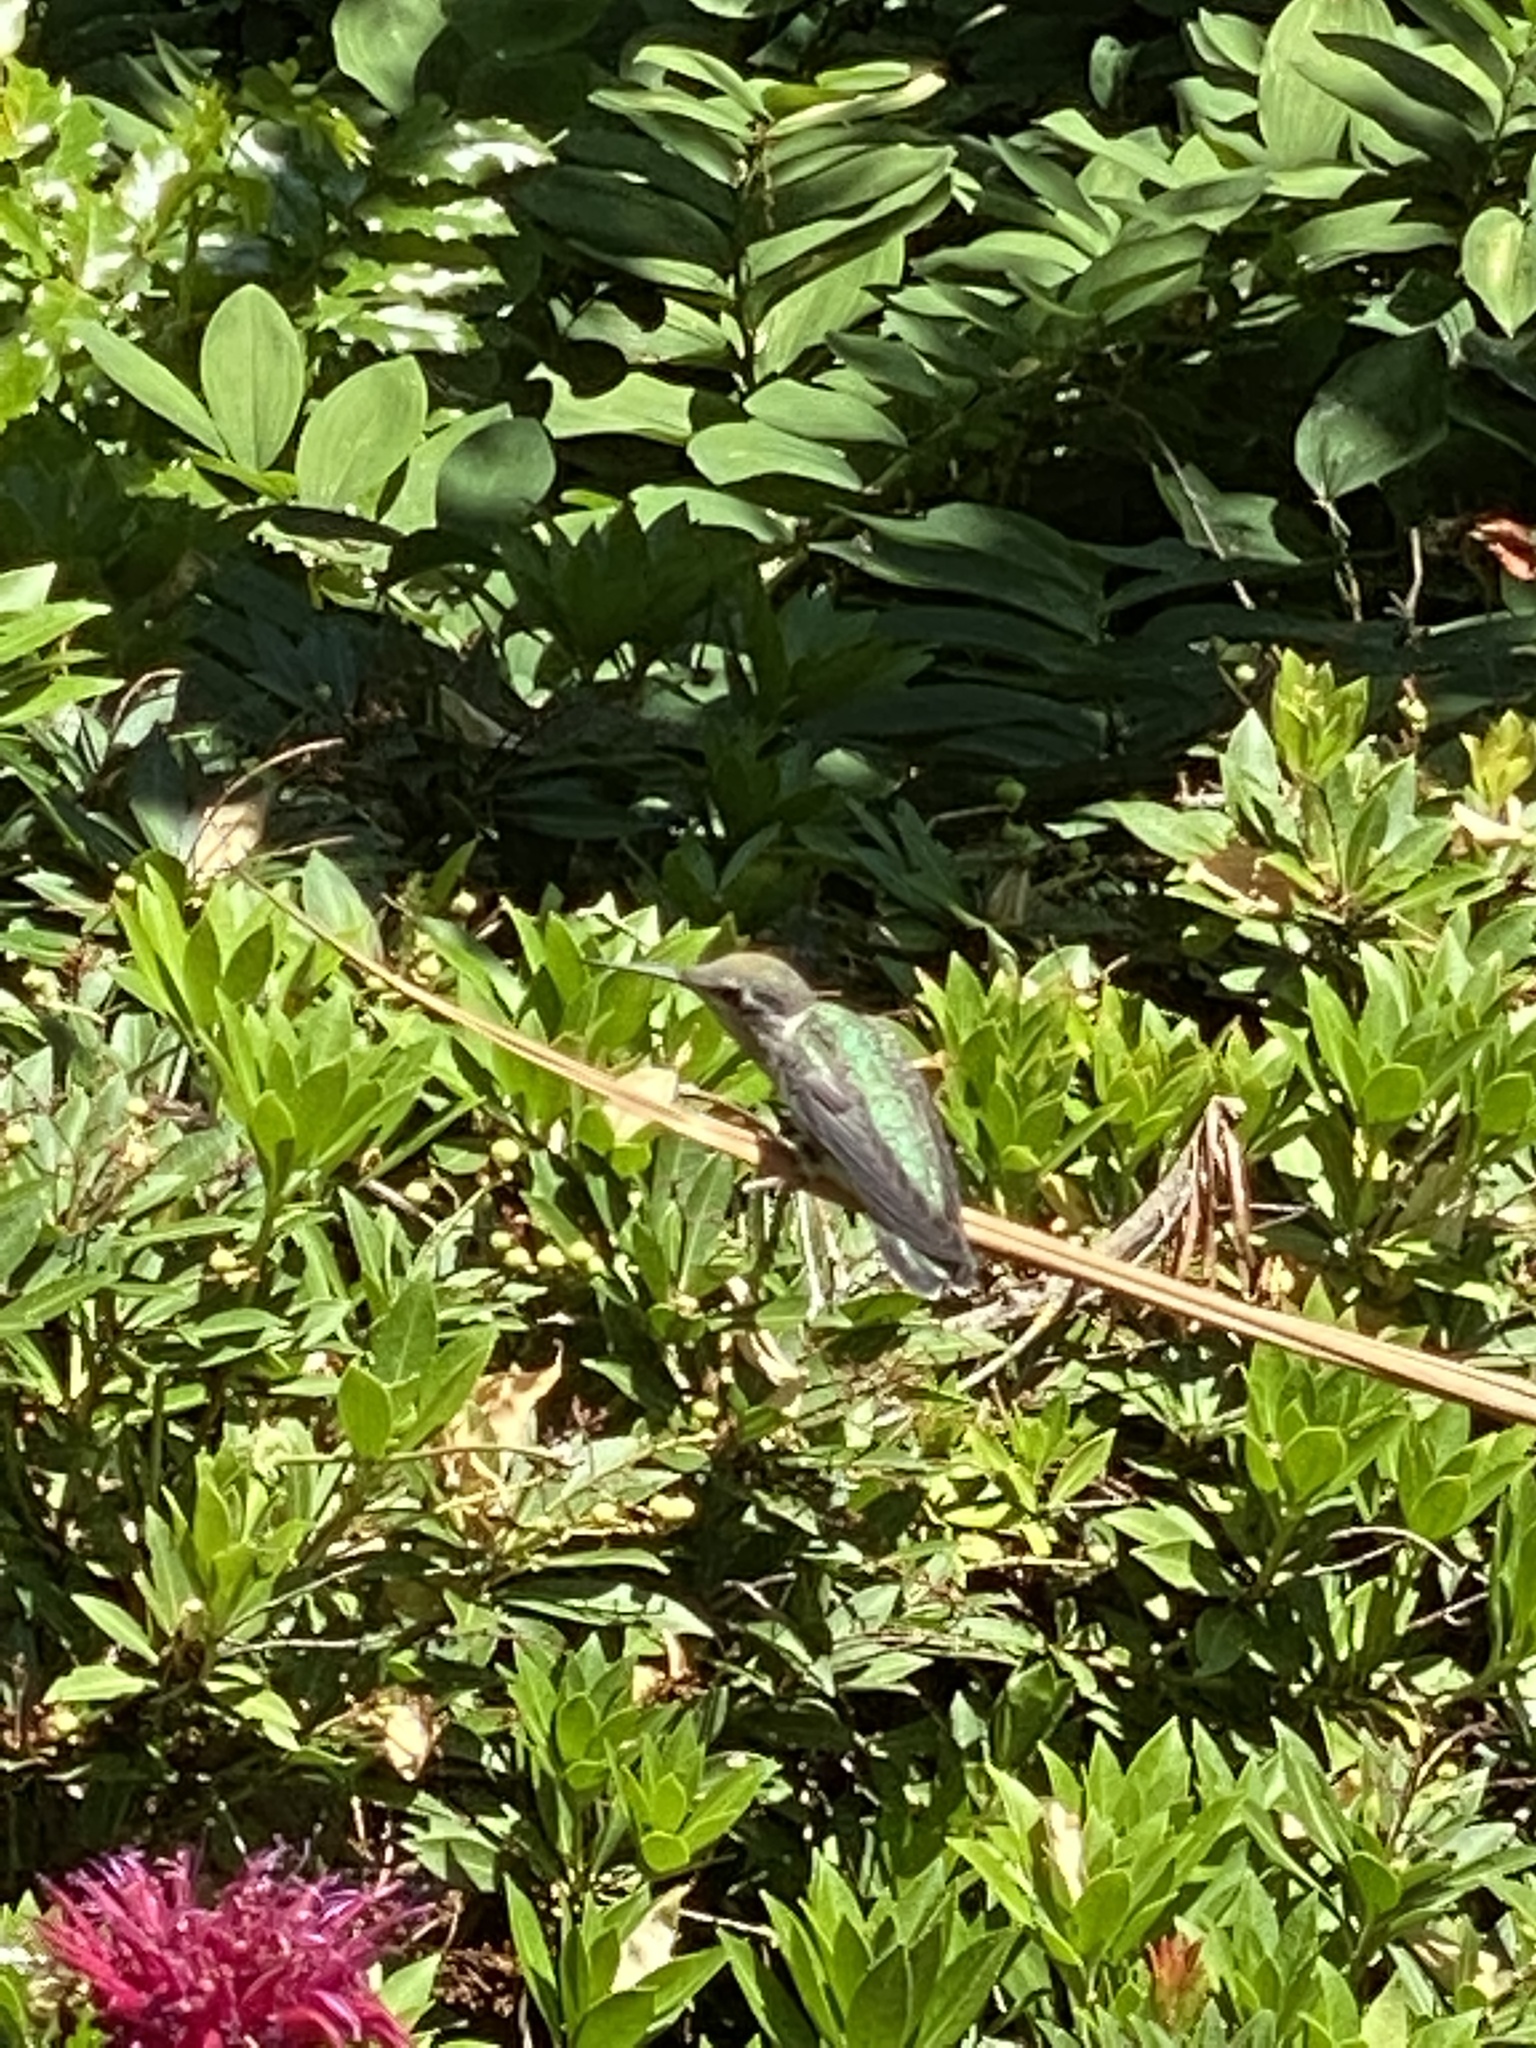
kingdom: Animalia
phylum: Chordata
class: Aves
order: Apodiformes
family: Trochilidae
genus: Calypte
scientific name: Calypte anna
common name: Anna's hummingbird
